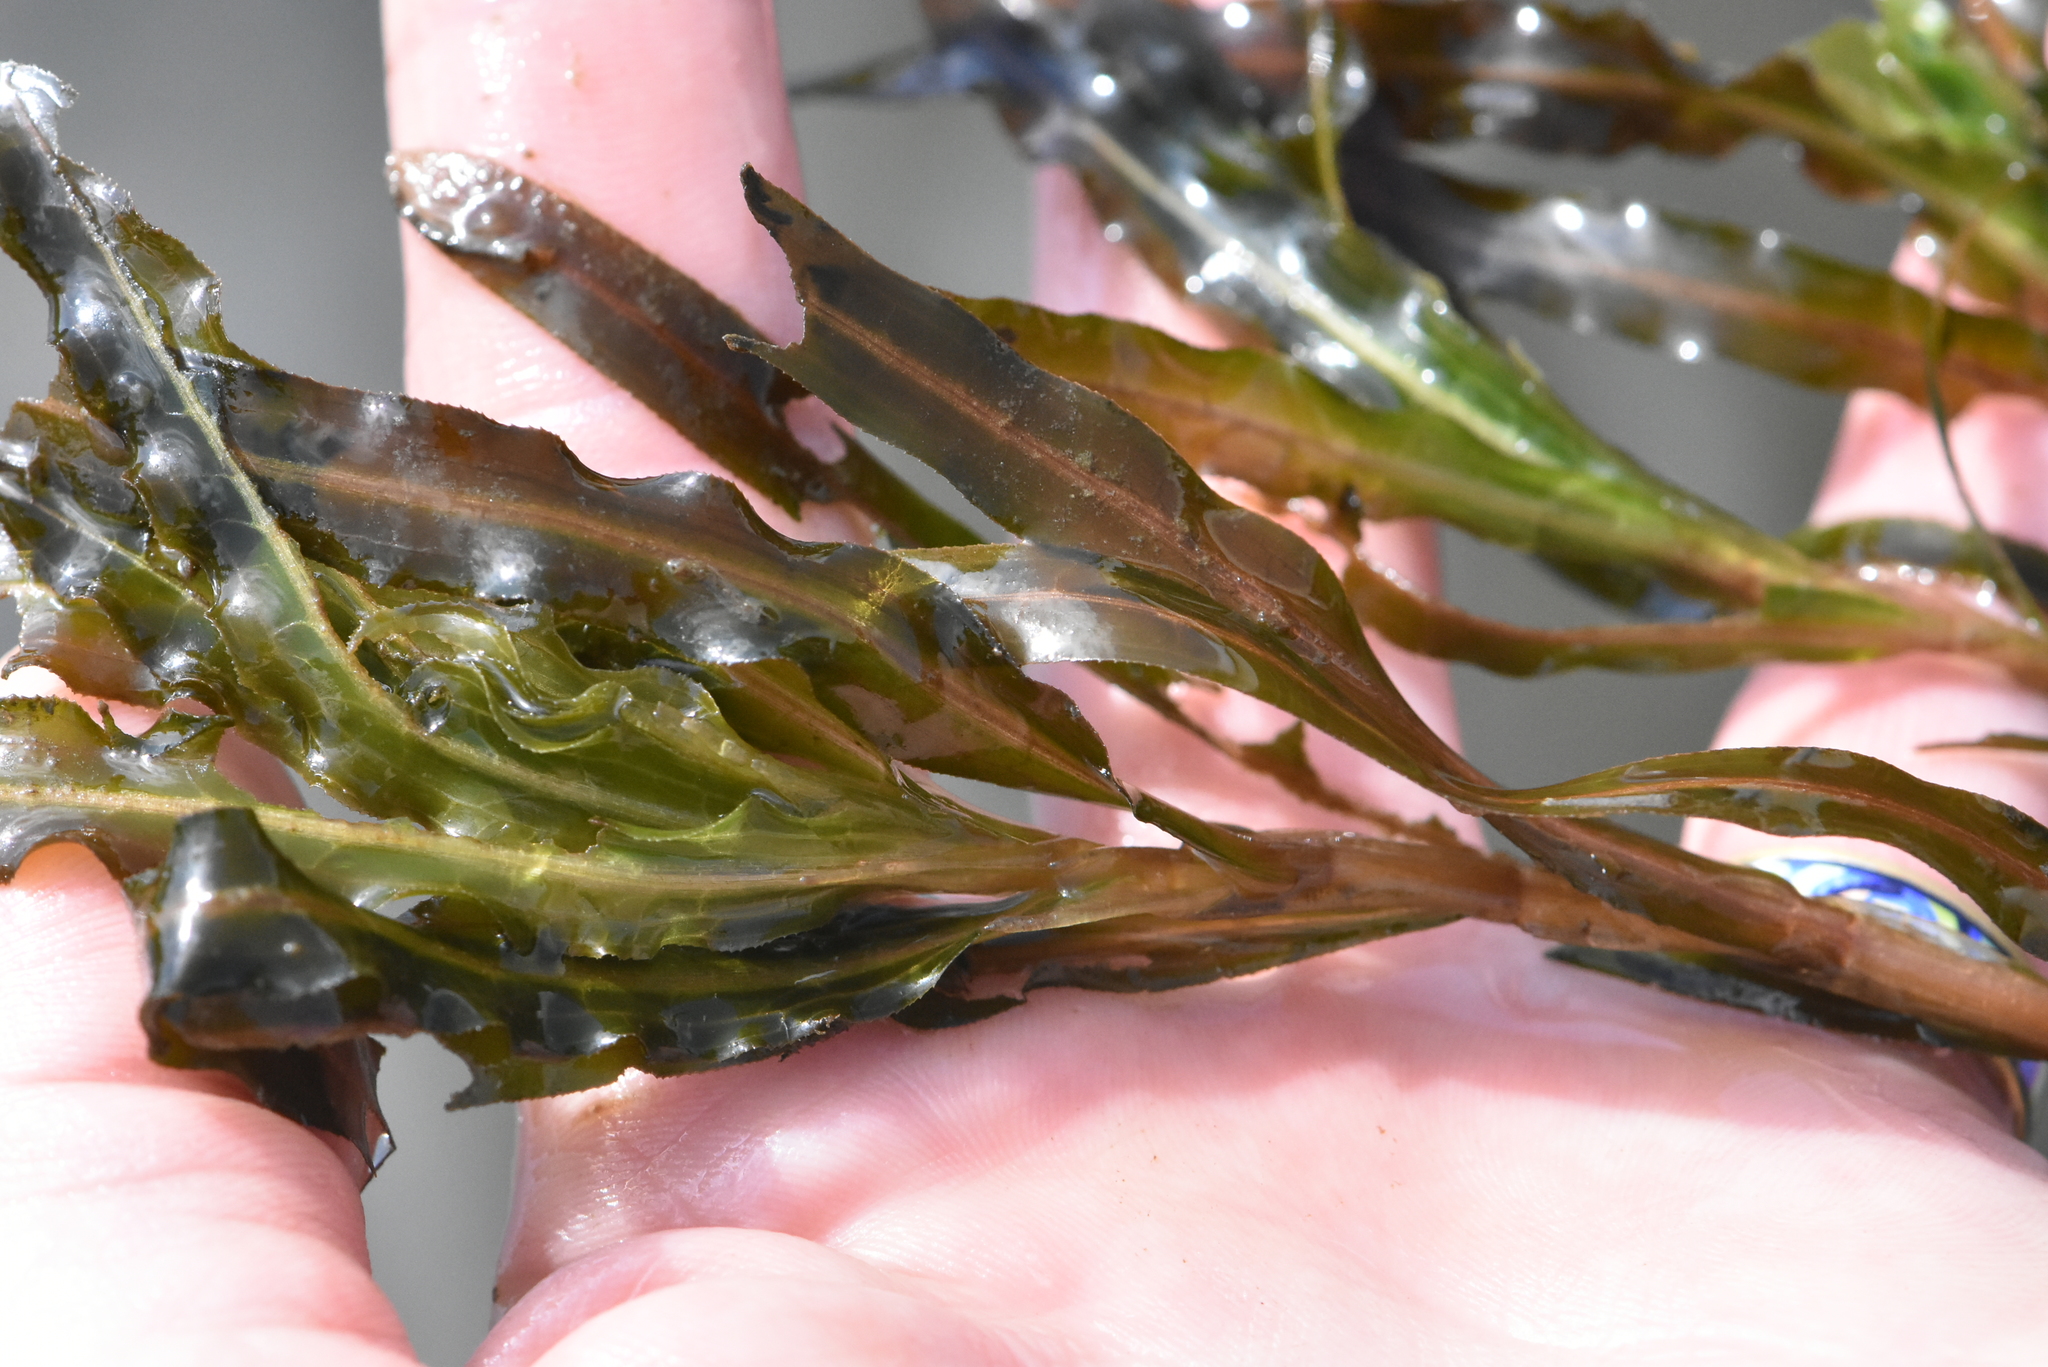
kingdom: Plantae
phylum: Tracheophyta
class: Liliopsida
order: Alismatales
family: Potamogetonaceae
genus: Potamogeton
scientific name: Potamogeton crispus
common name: Curled pondweed
